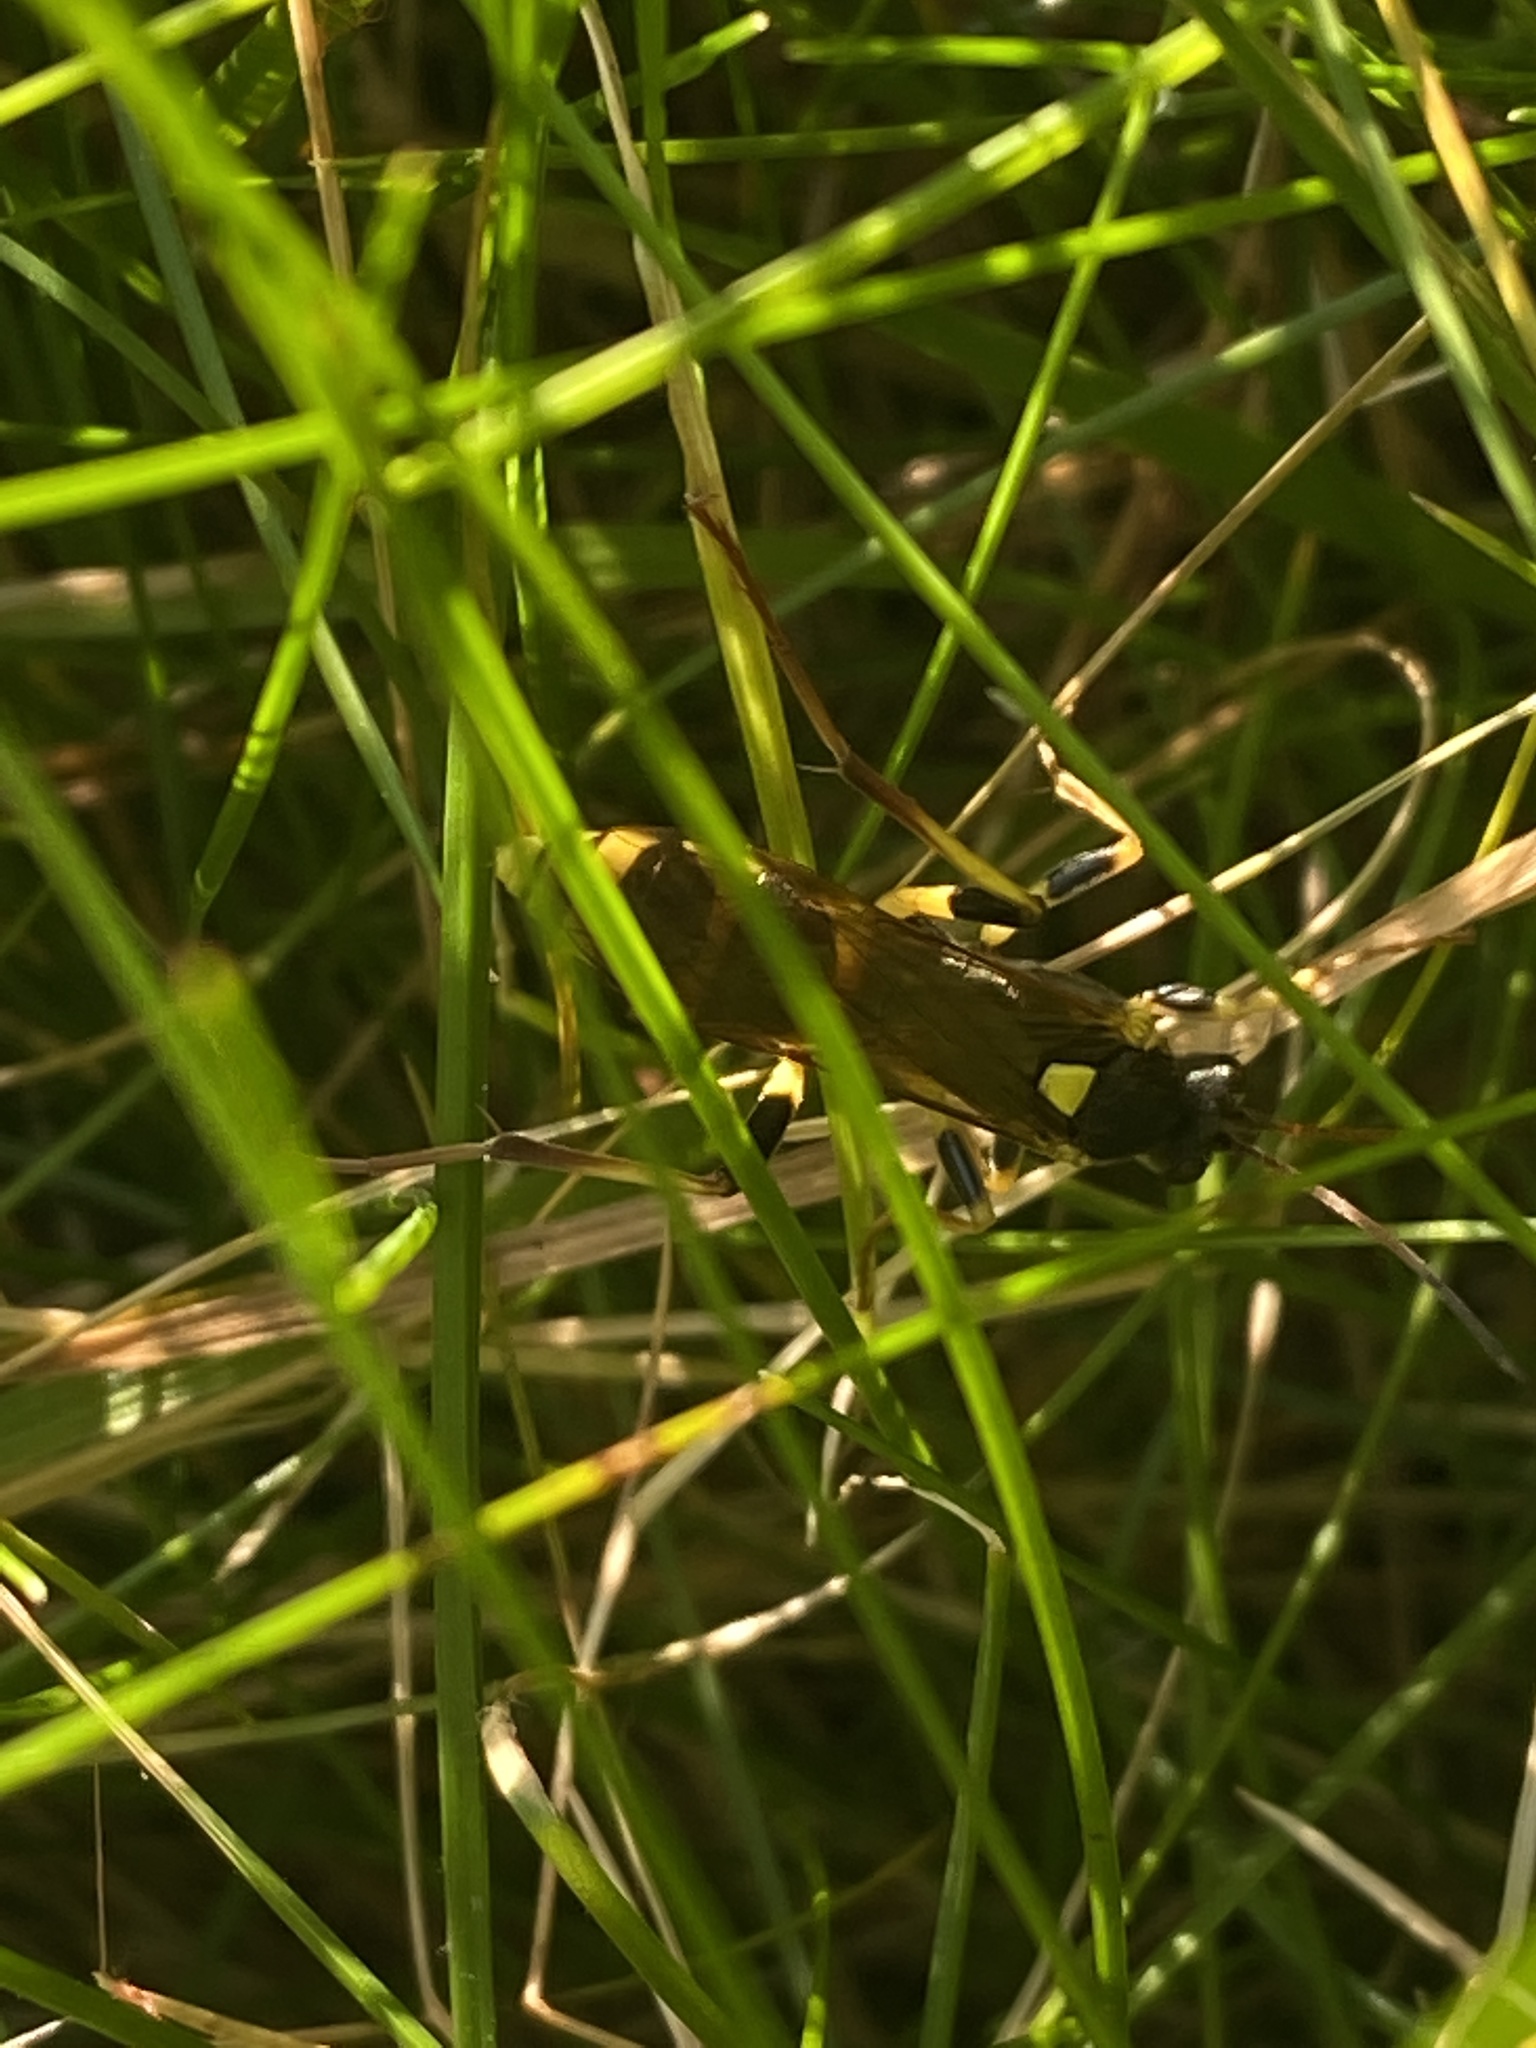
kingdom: Animalia
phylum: Arthropoda
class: Insecta
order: Hymenoptera
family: Ichneumonidae
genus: Amblyteles
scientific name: Amblyteles armatorius
